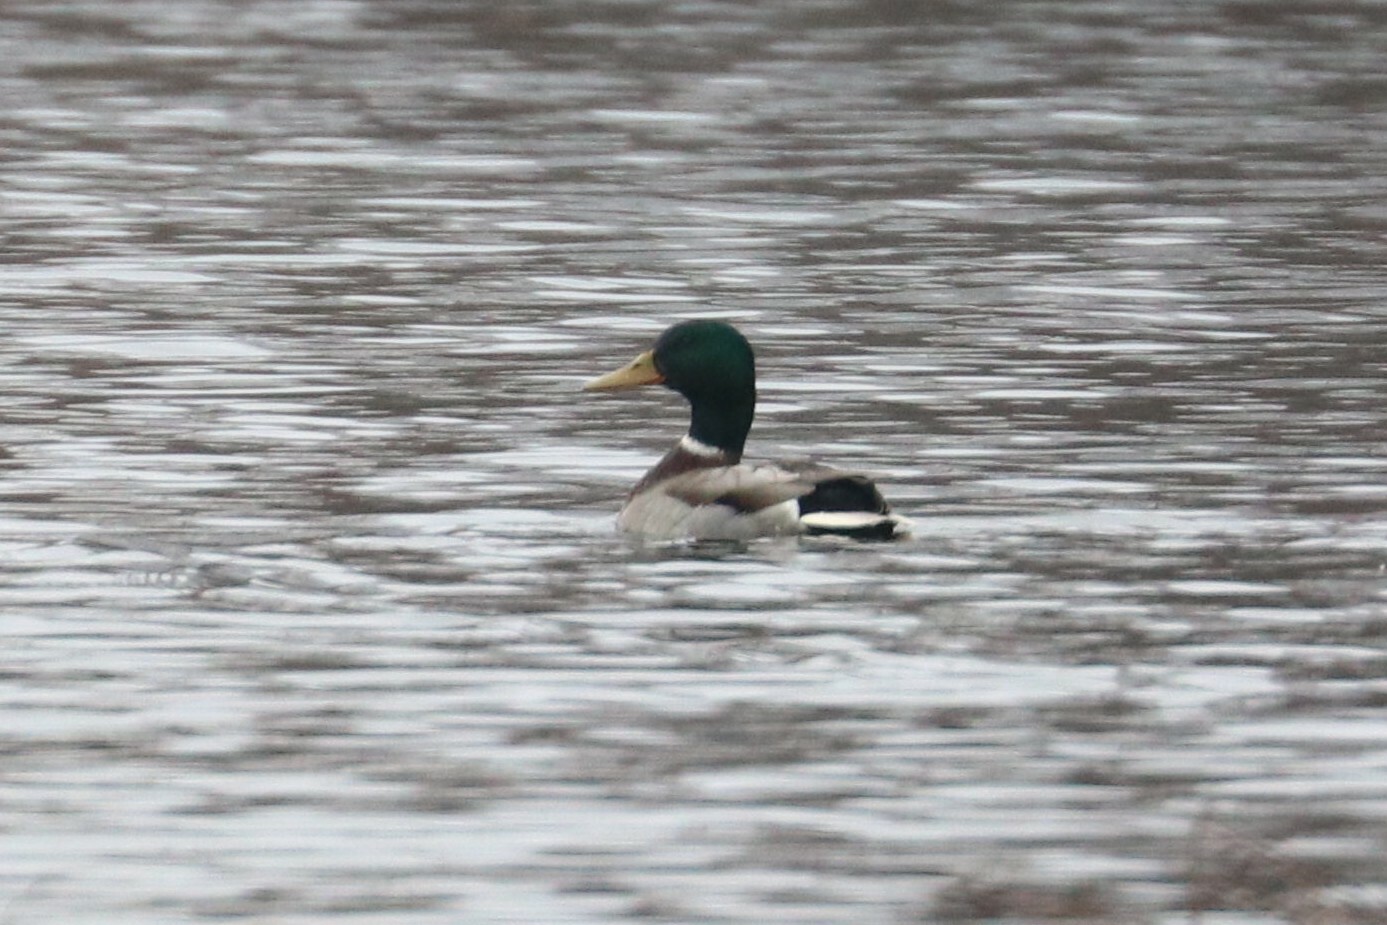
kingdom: Animalia
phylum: Chordata
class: Aves
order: Anseriformes
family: Anatidae
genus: Anas
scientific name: Anas platyrhynchos
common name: Mallard
